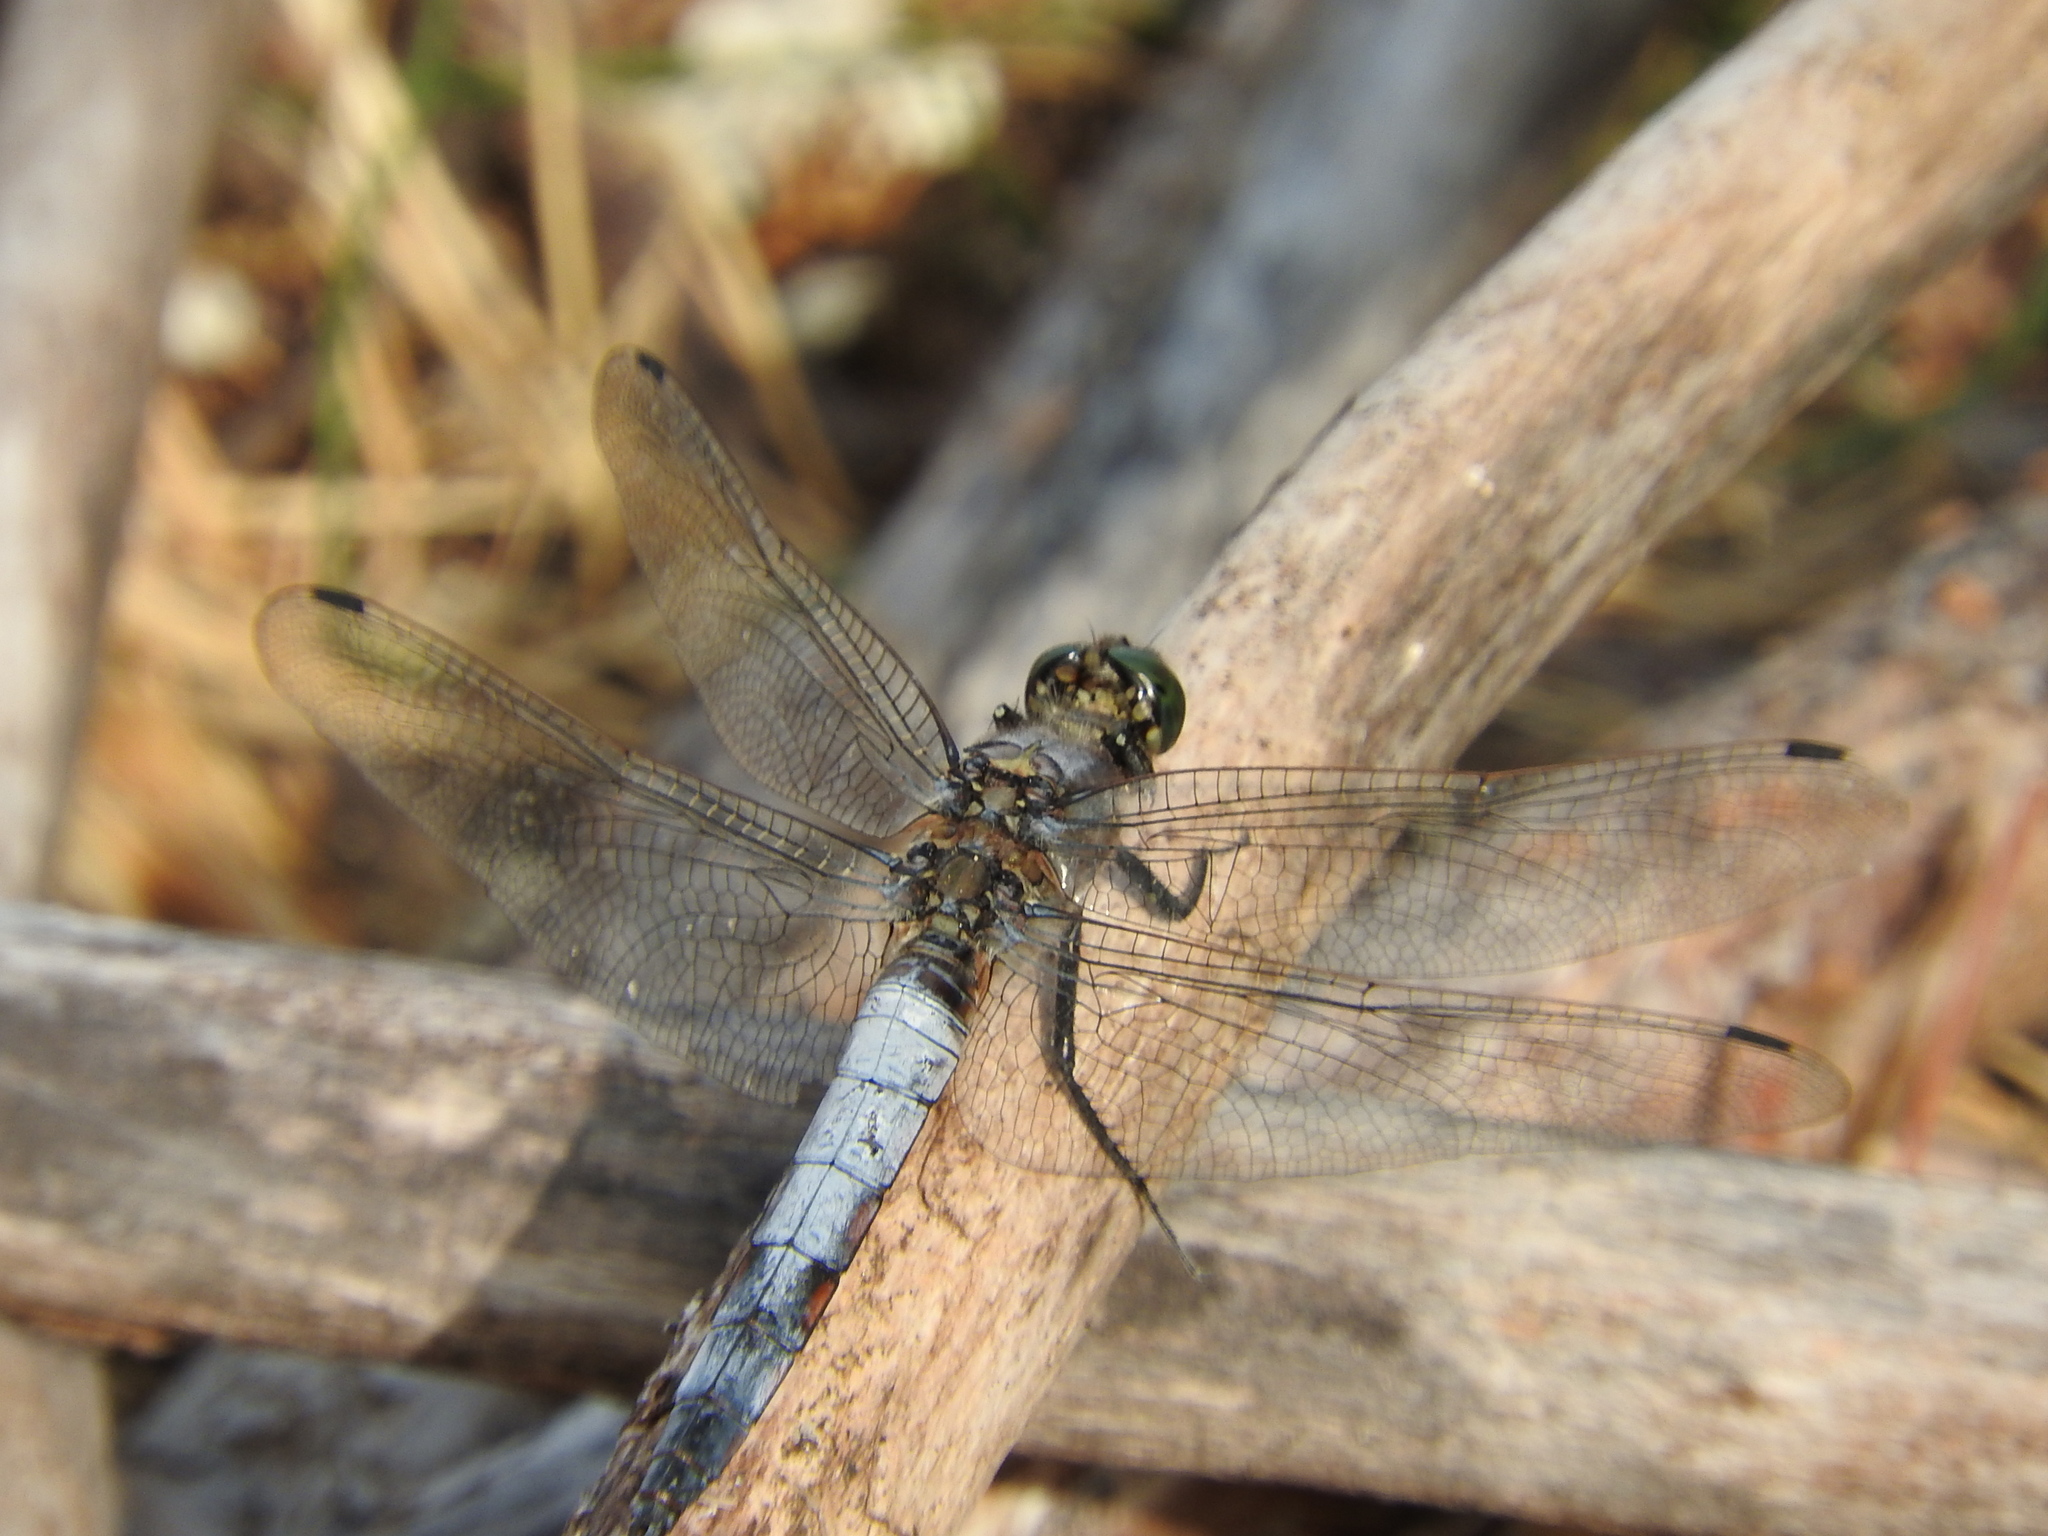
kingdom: Animalia
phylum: Arthropoda
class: Insecta
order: Odonata
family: Libellulidae
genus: Orthetrum
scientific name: Orthetrum cancellatum
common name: Black-tailed skimmer
